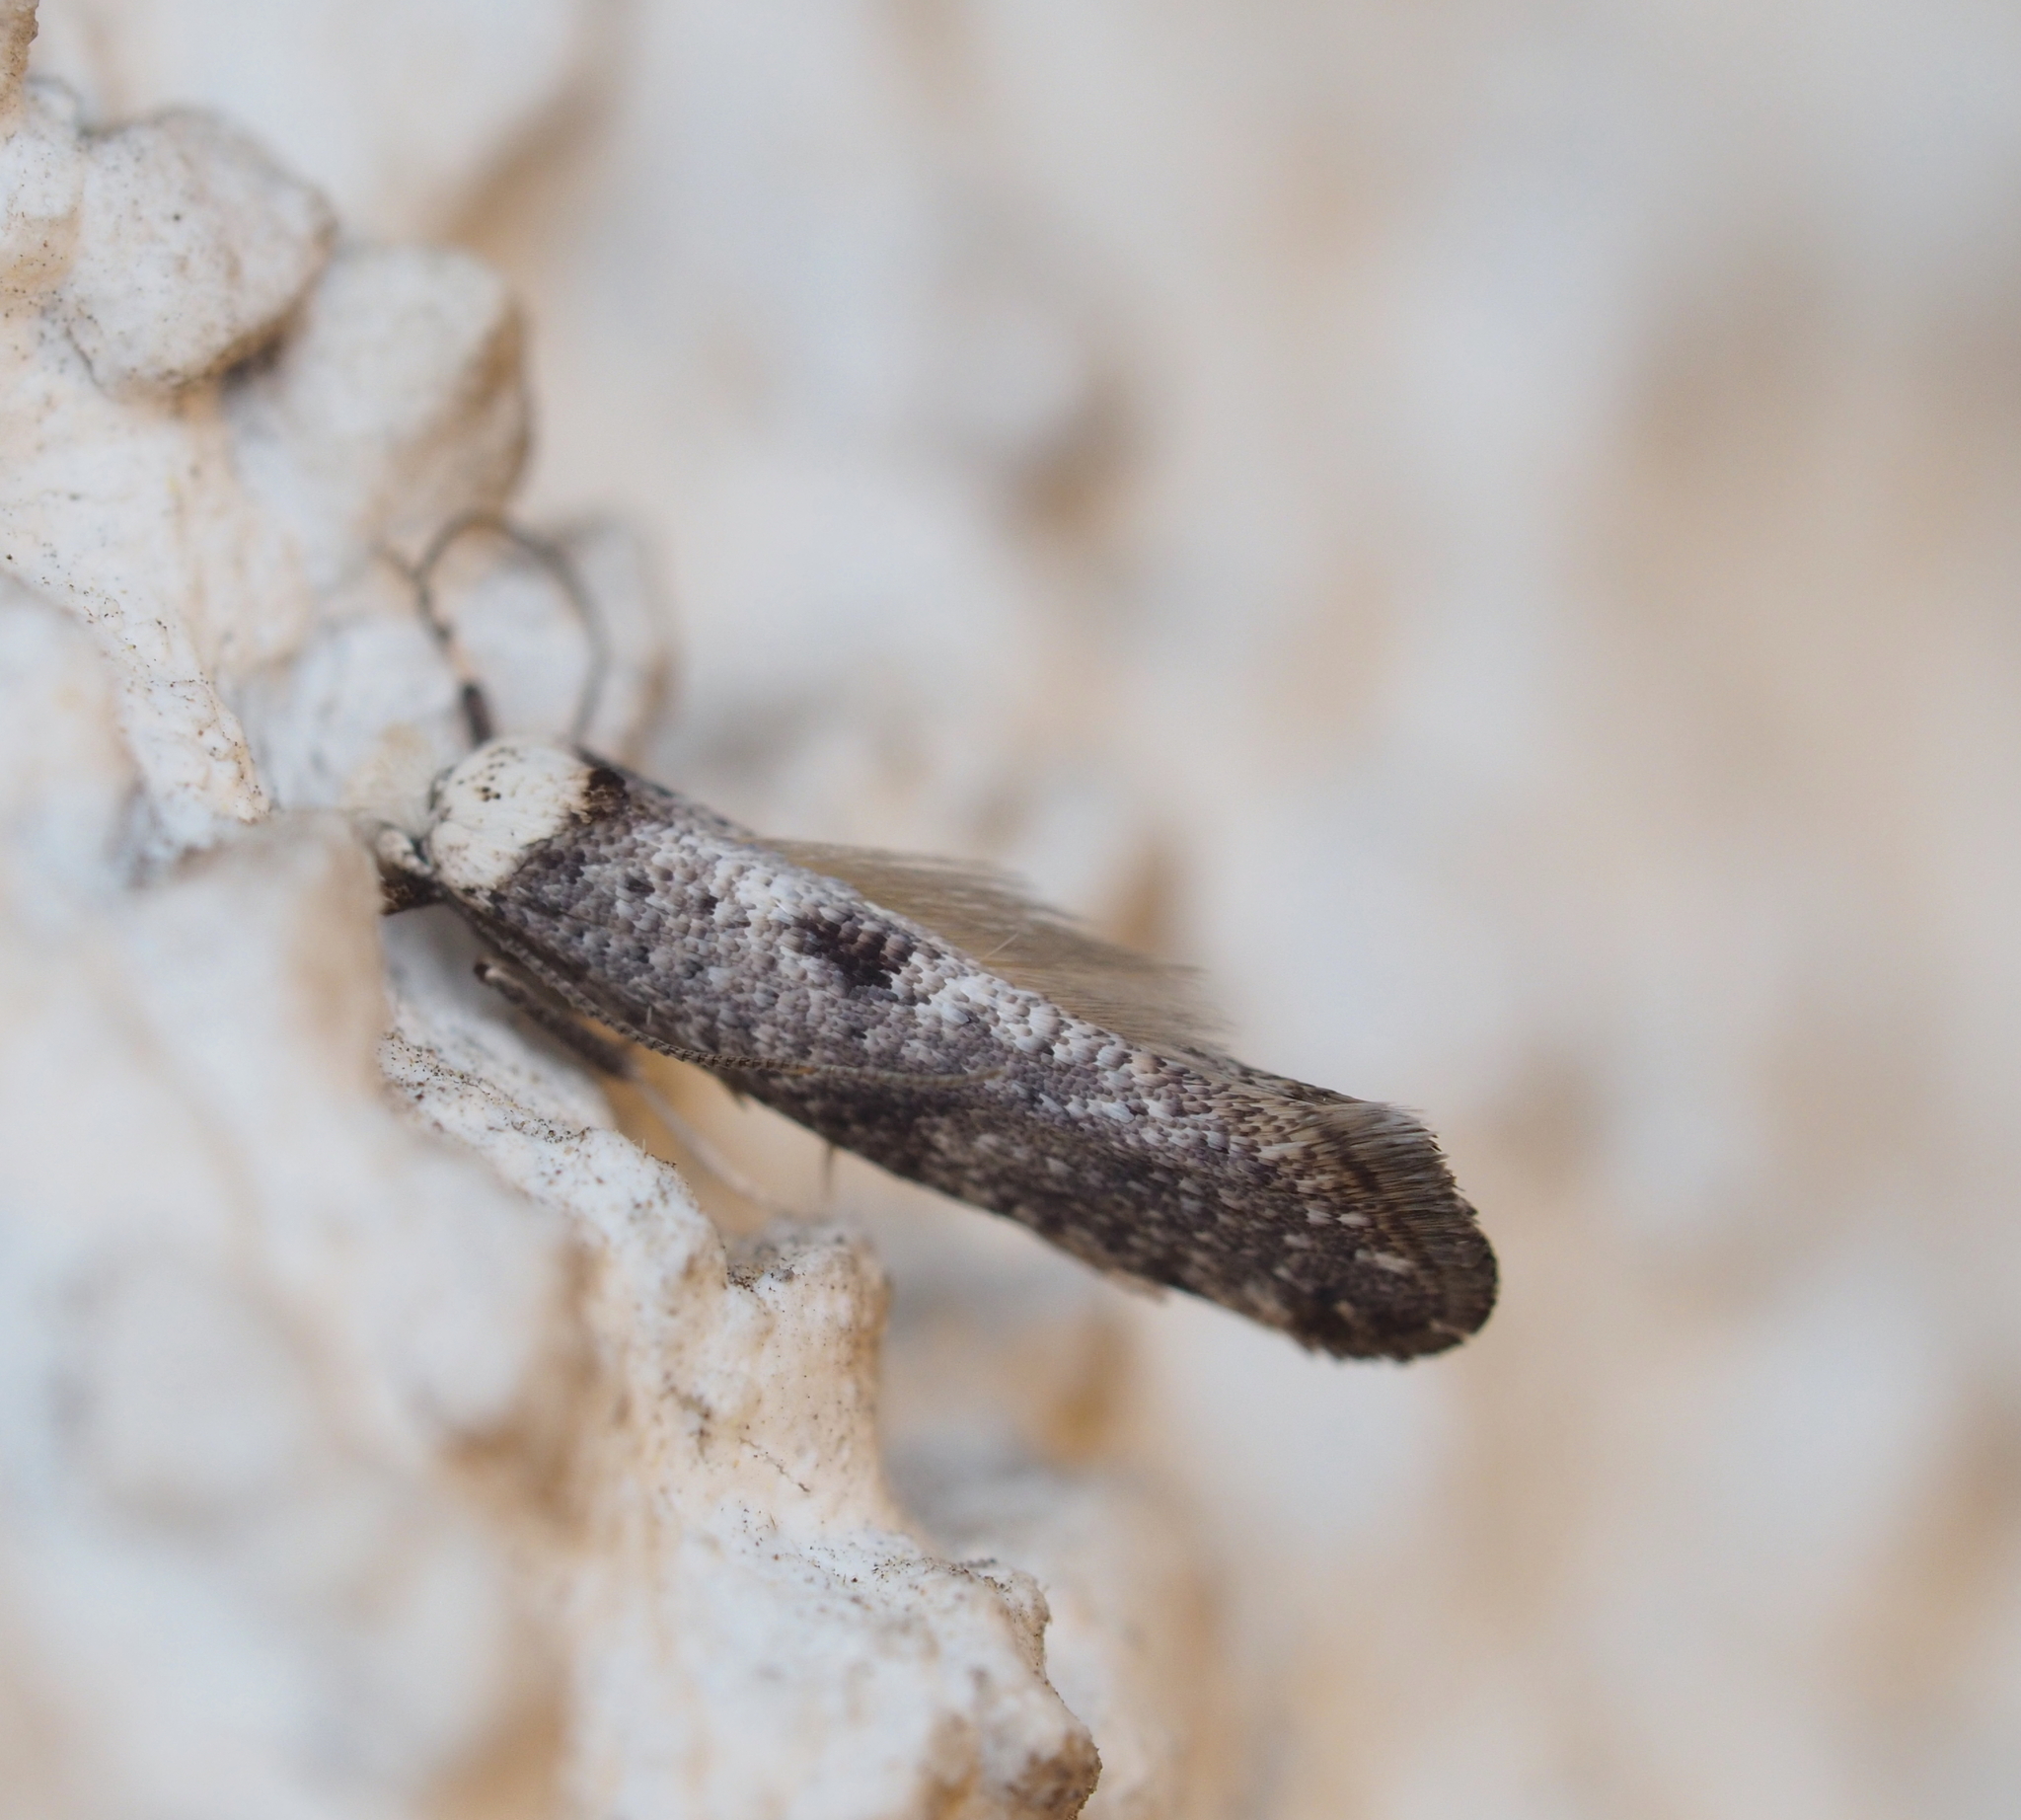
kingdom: Animalia
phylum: Arthropoda
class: Insecta
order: Lepidoptera
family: Yponomeutidae
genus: Paraswammerdamia
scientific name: Paraswammerdamia albicapitella
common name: White-headed ermel
